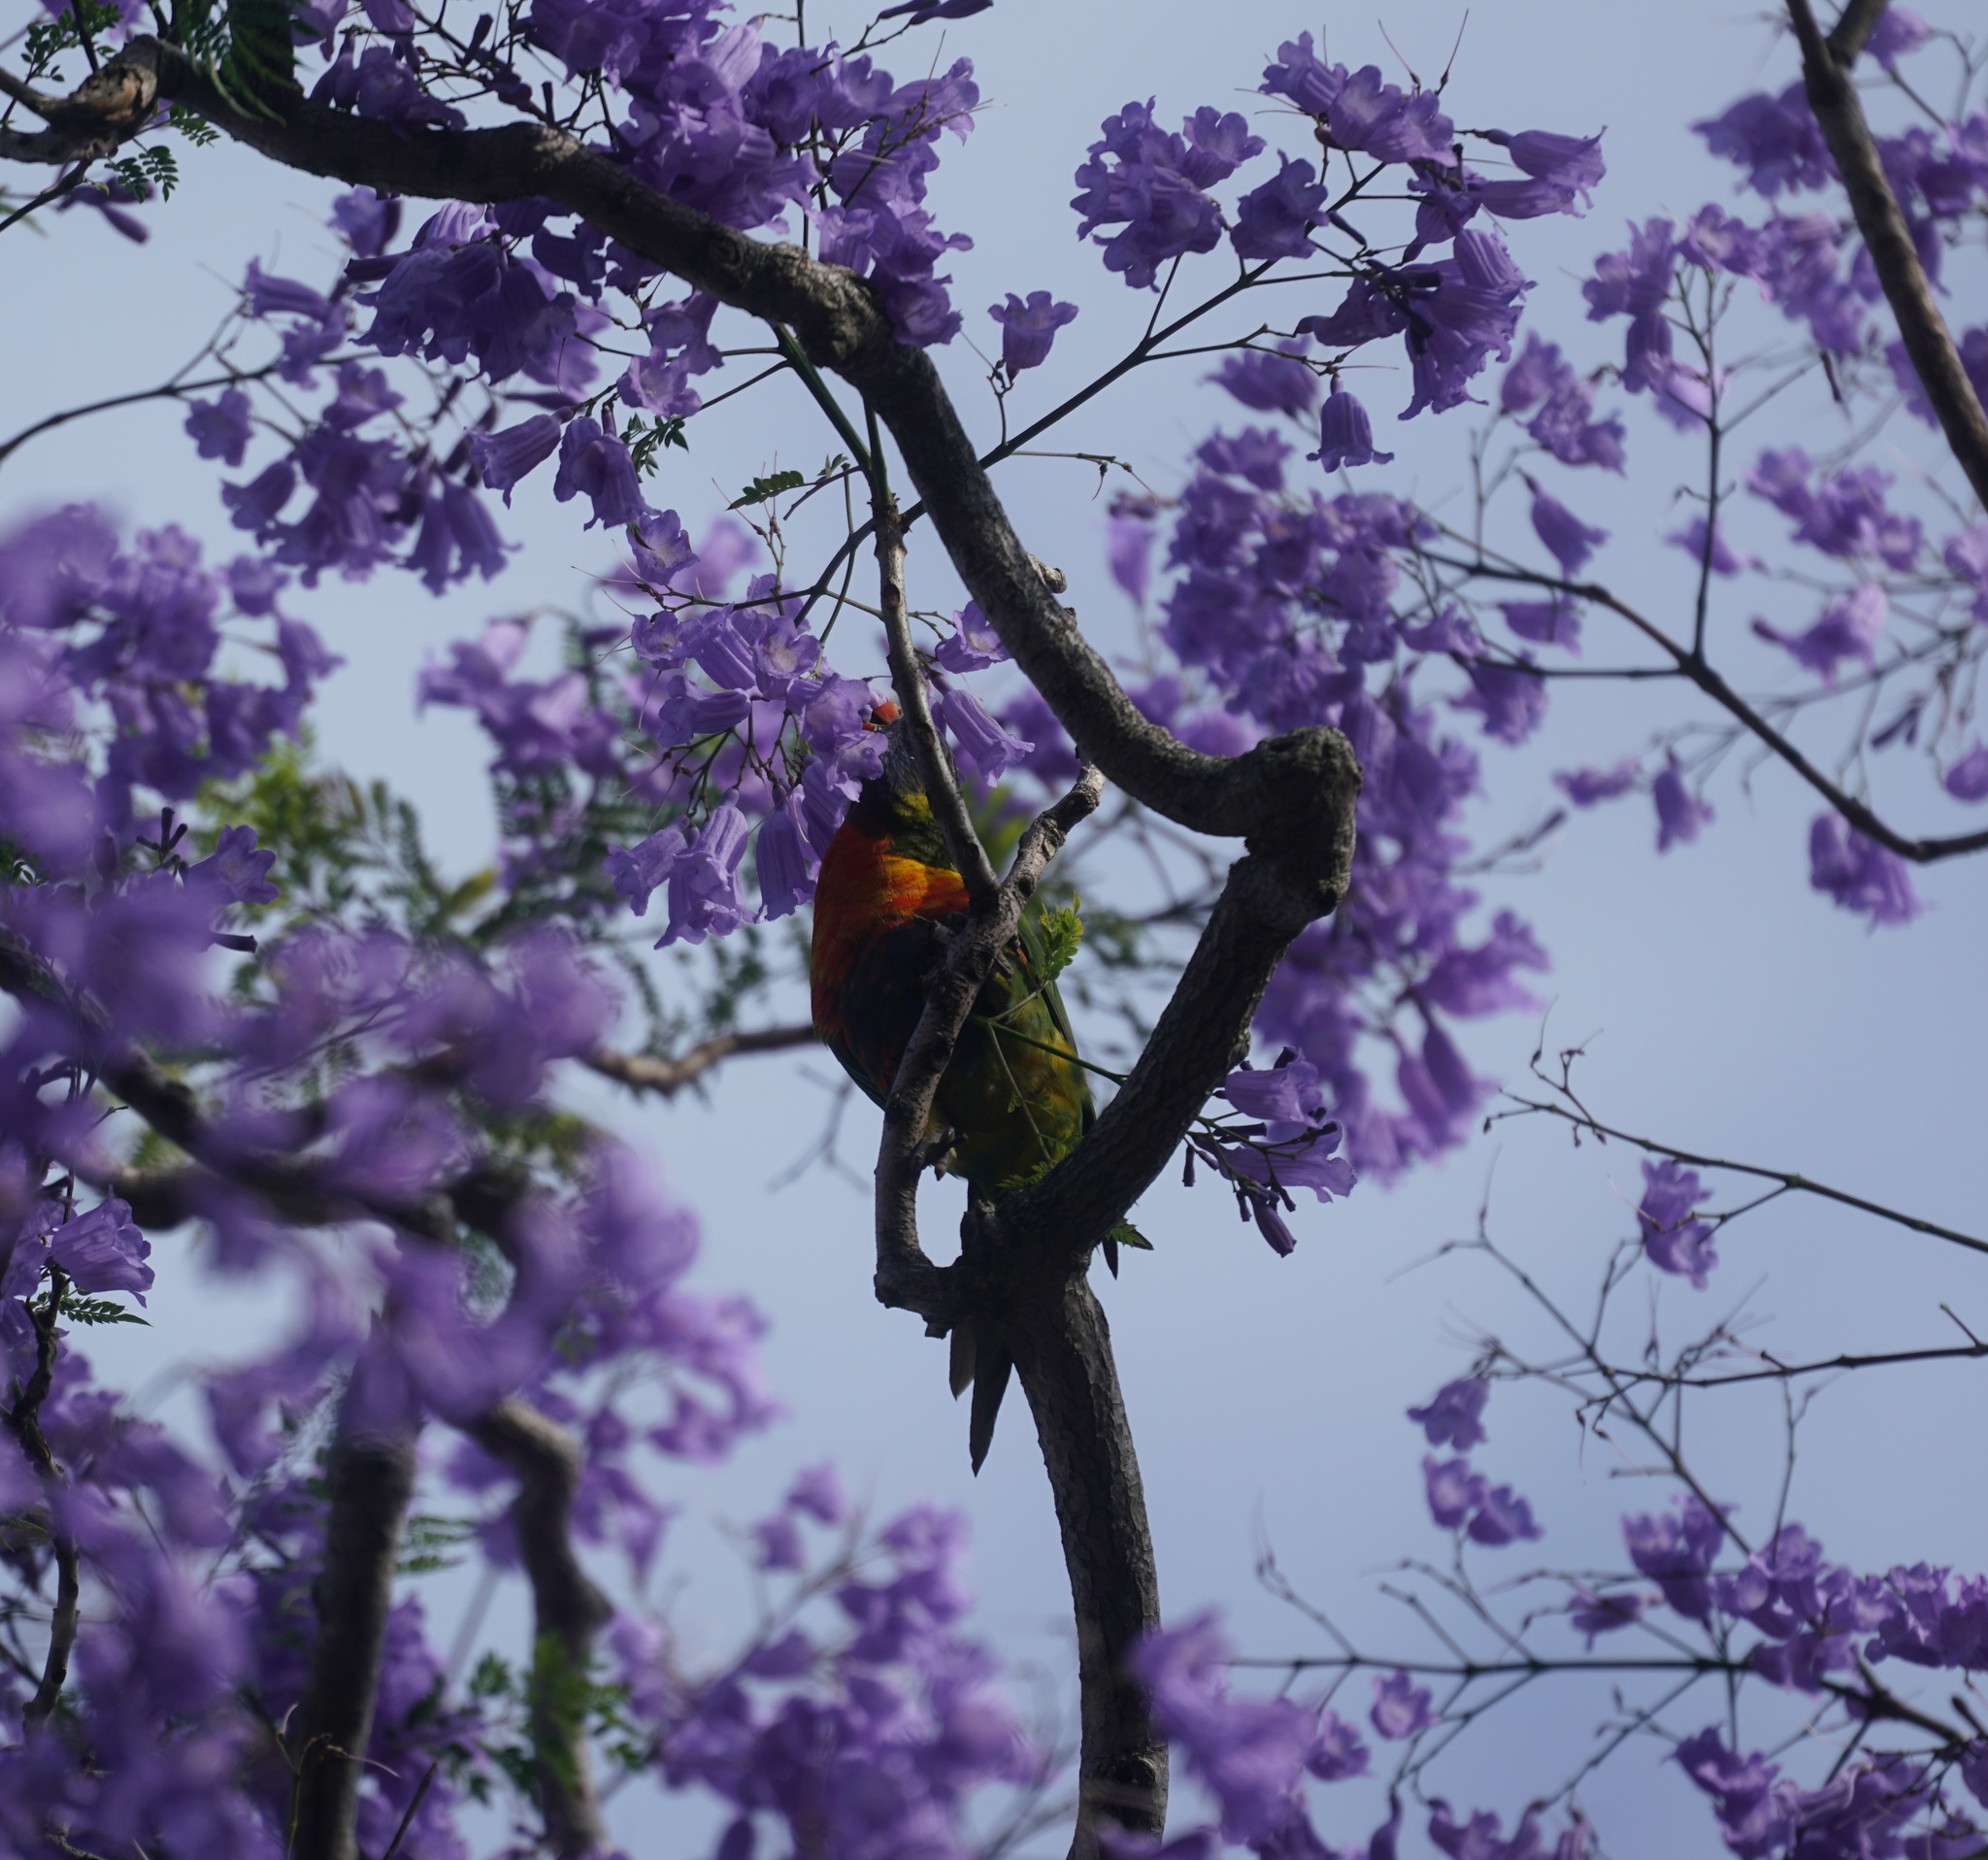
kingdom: Animalia
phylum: Chordata
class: Aves
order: Psittaciformes
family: Psittacidae
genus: Trichoglossus
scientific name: Trichoglossus haematodus
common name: Coconut lorikeet
